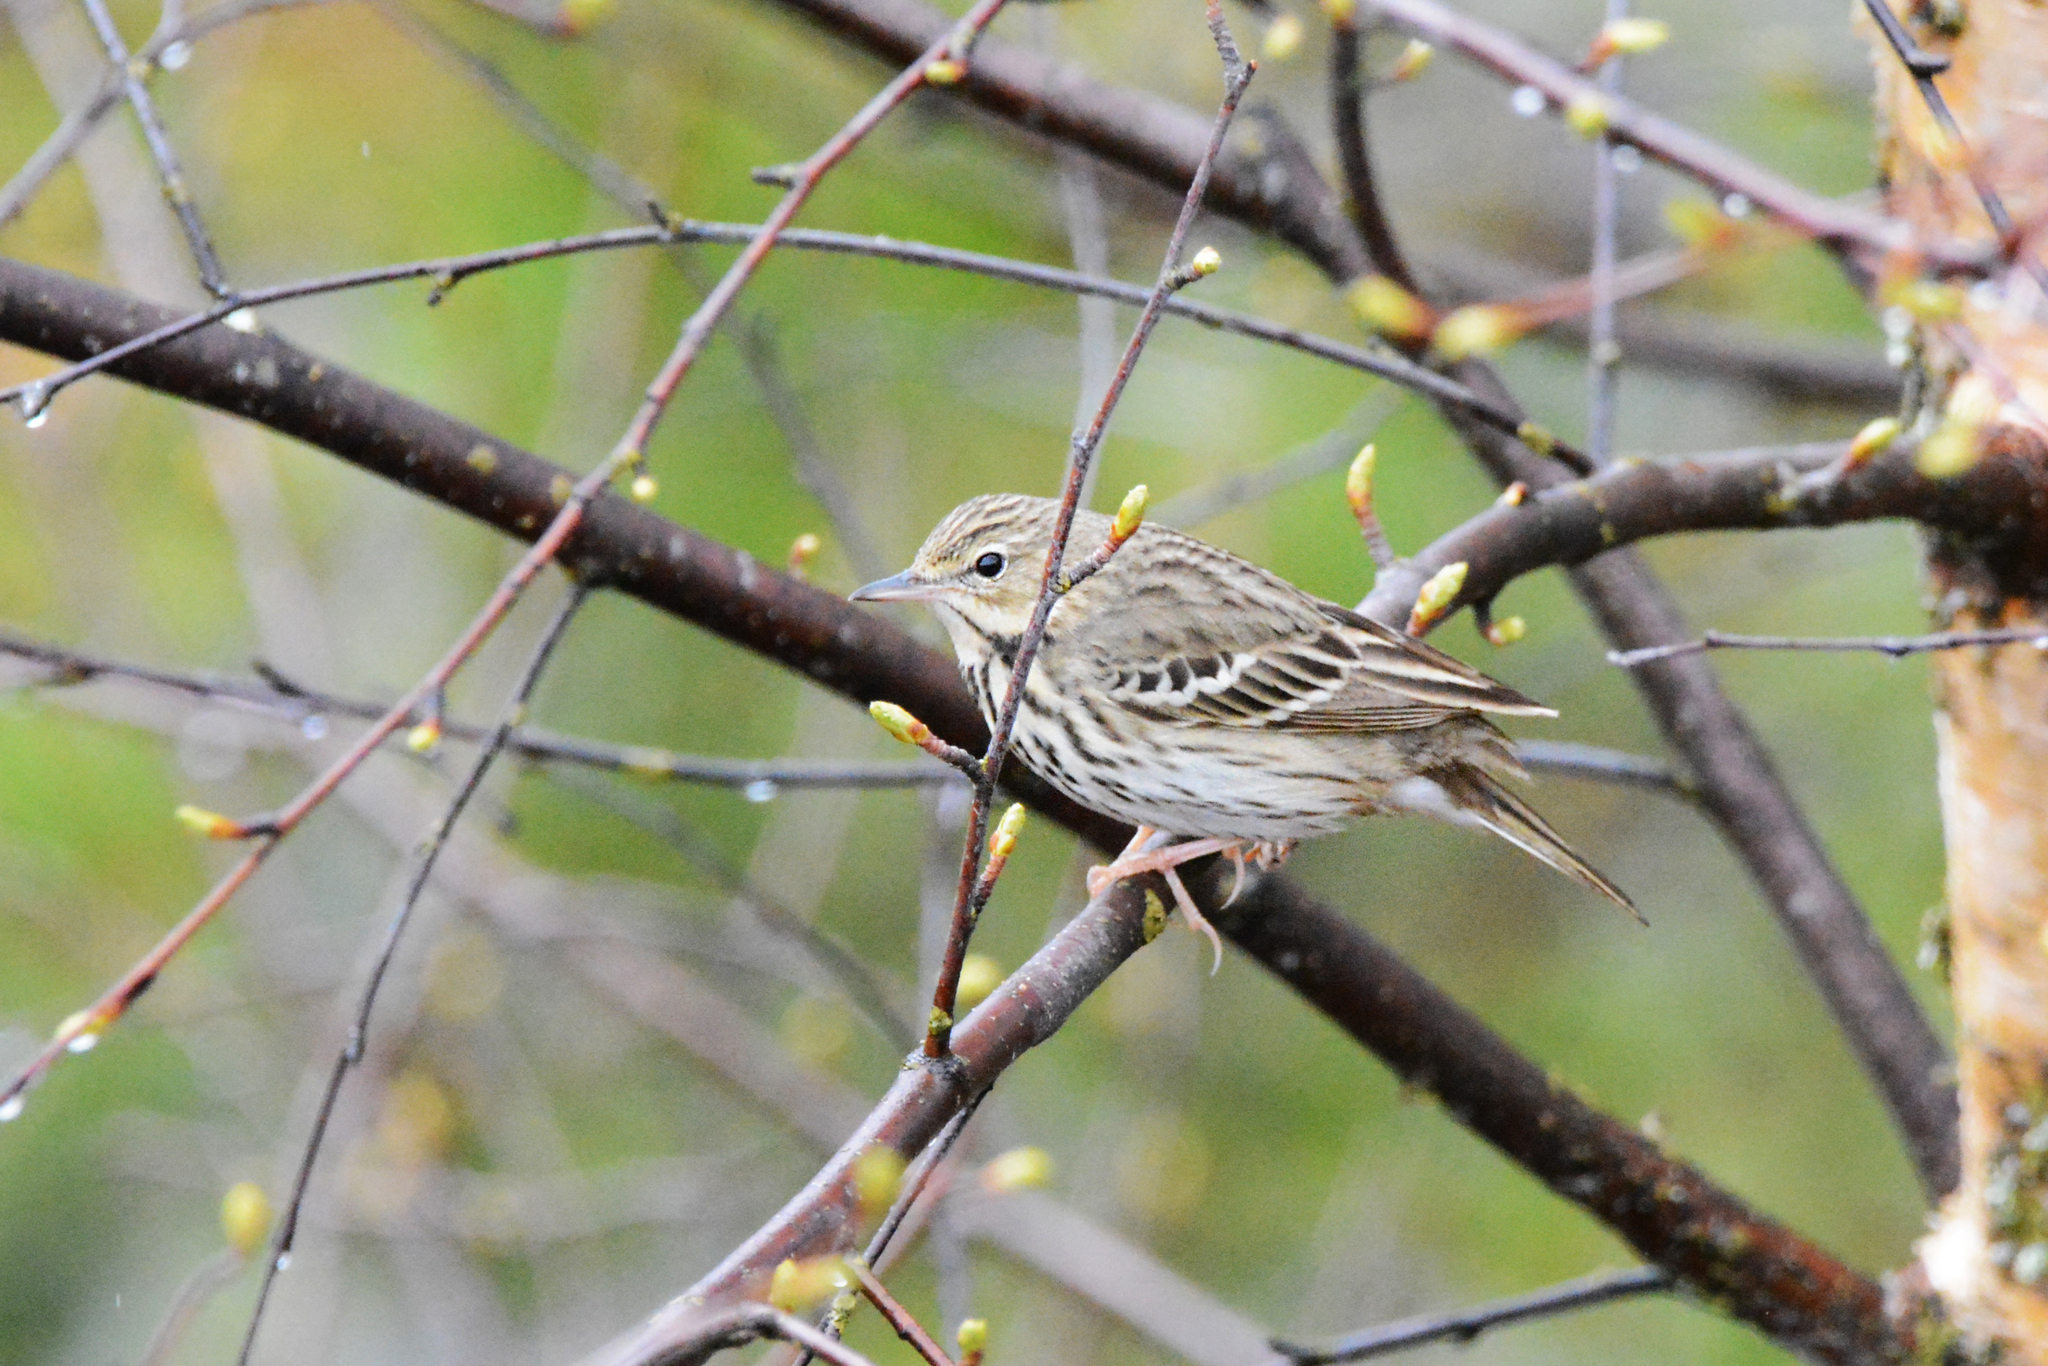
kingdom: Animalia
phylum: Chordata
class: Aves
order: Passeriformes
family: Motacillidae
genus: Anthus
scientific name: Anthus trivialis
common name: Tree pipit
